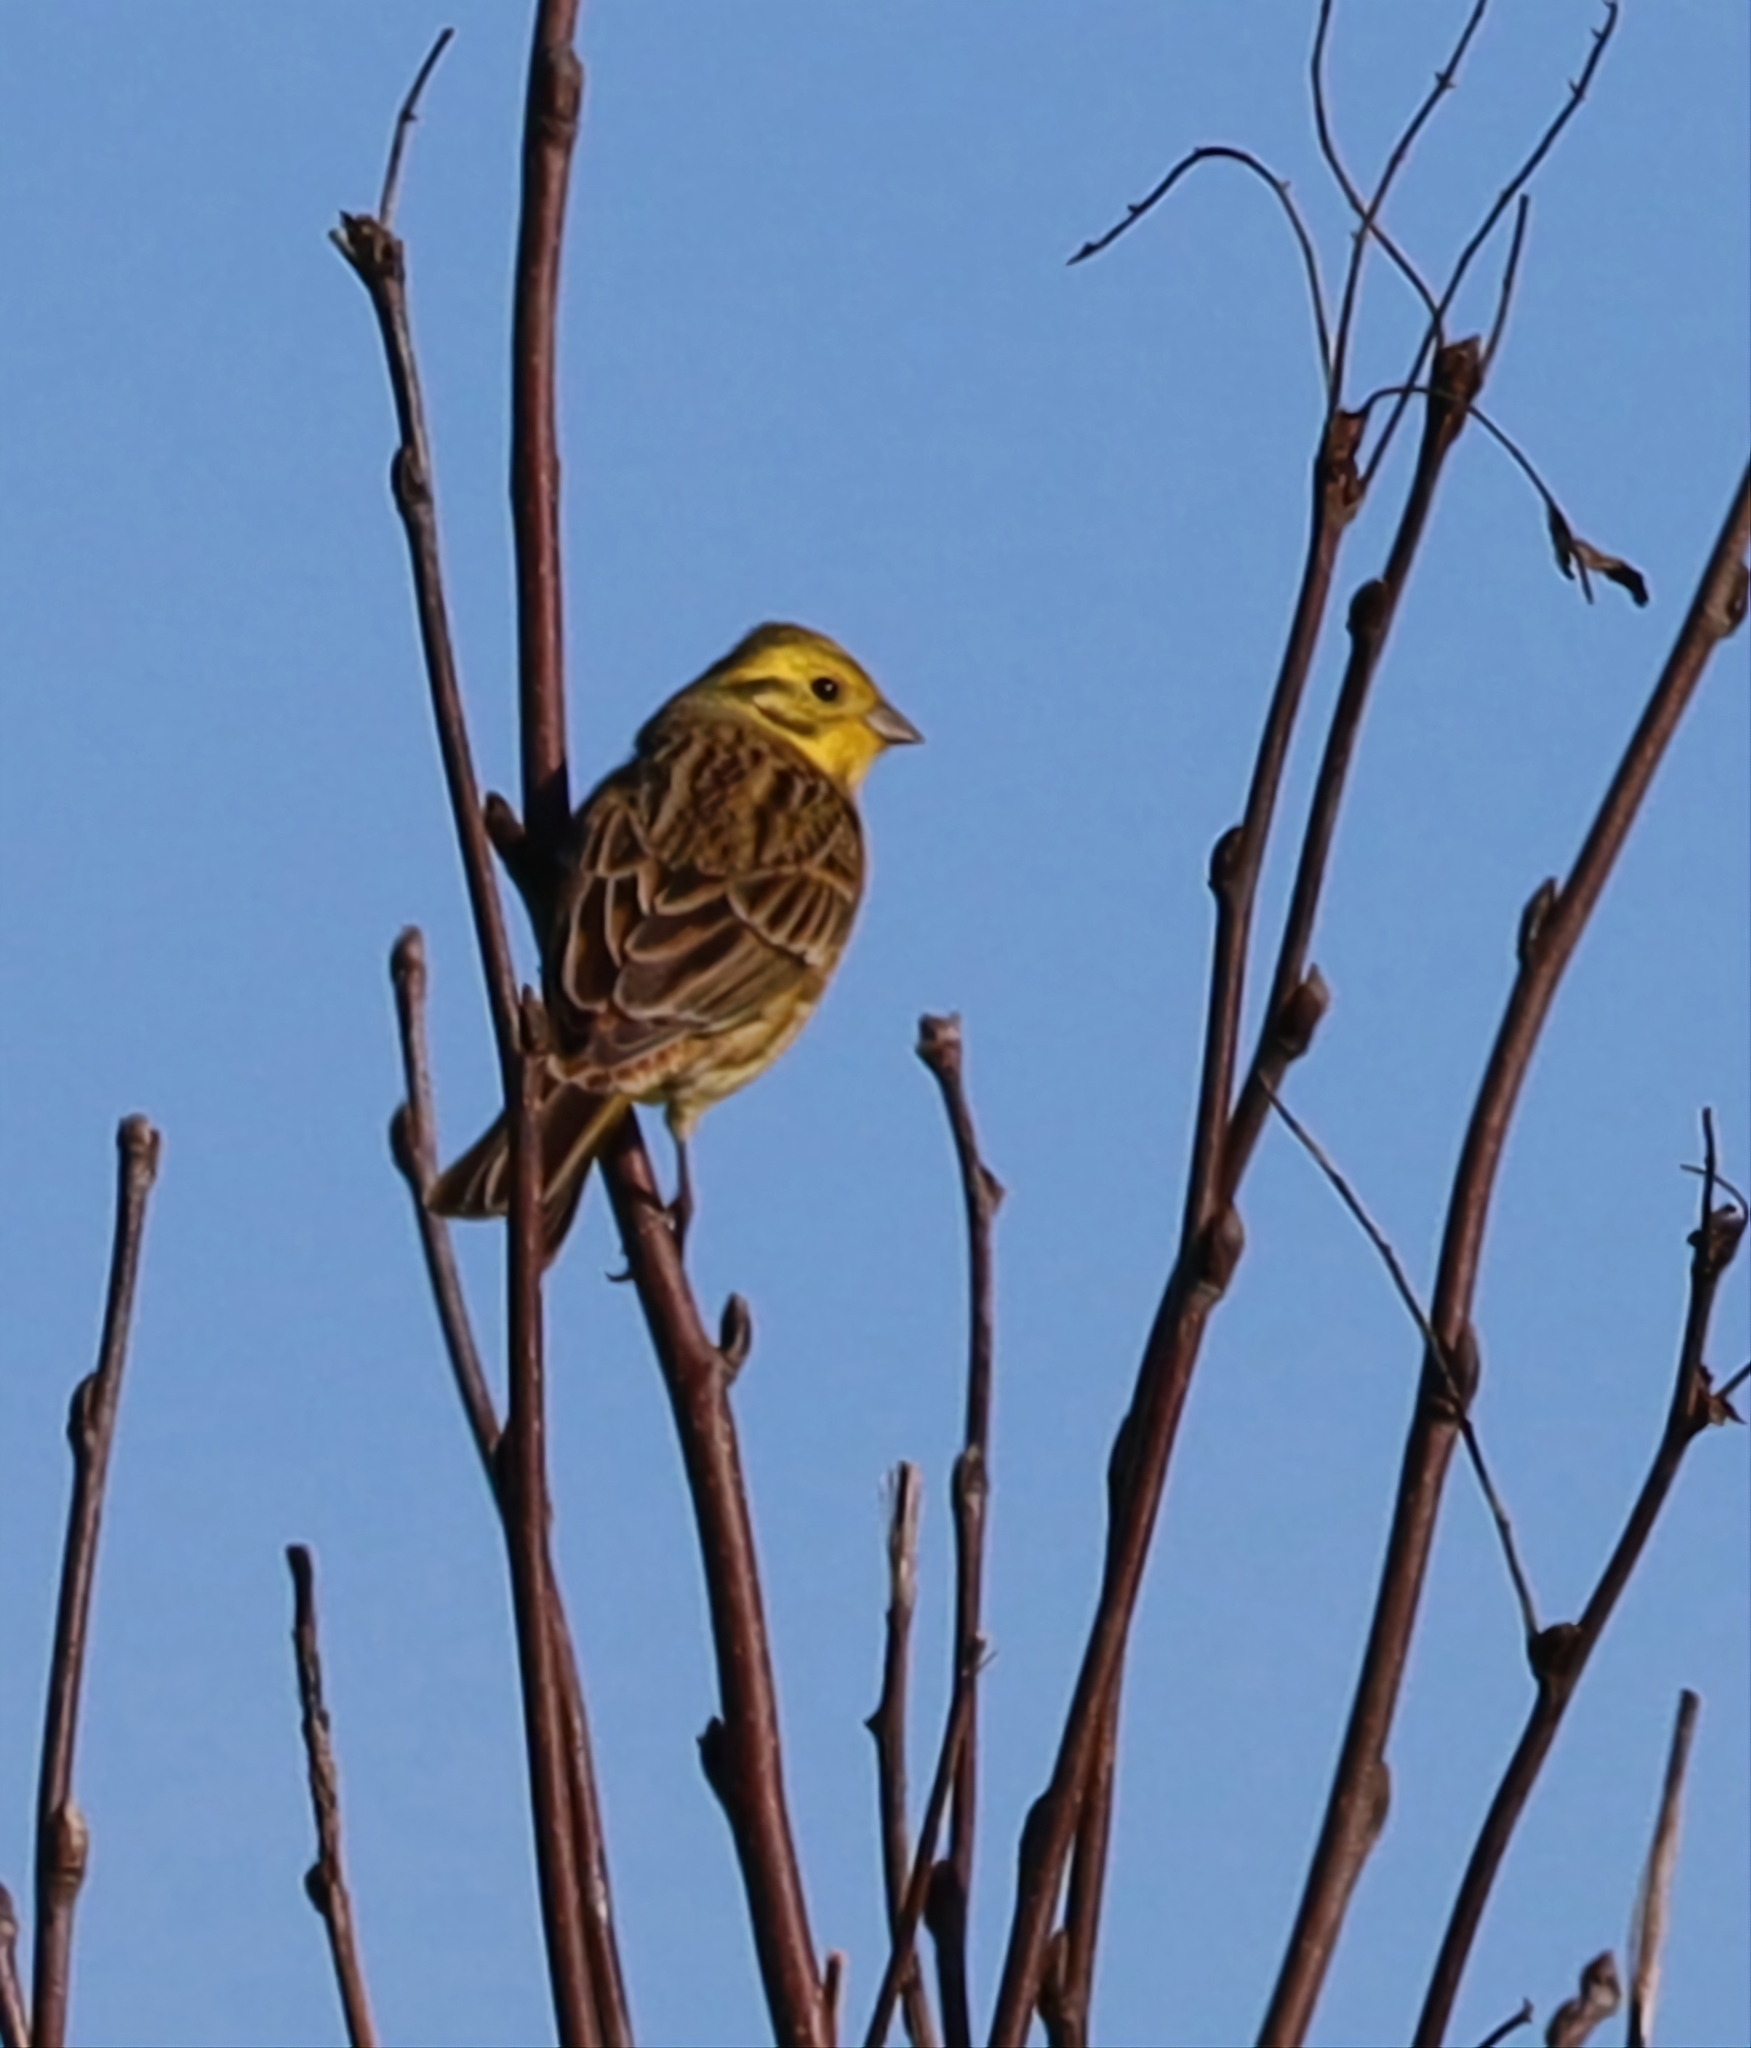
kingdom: Animalia
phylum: Chordata
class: Aves
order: Passeriformes
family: Emberizidae
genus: Emberiza
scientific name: Emberiza citrinella
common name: Yellowhammer
